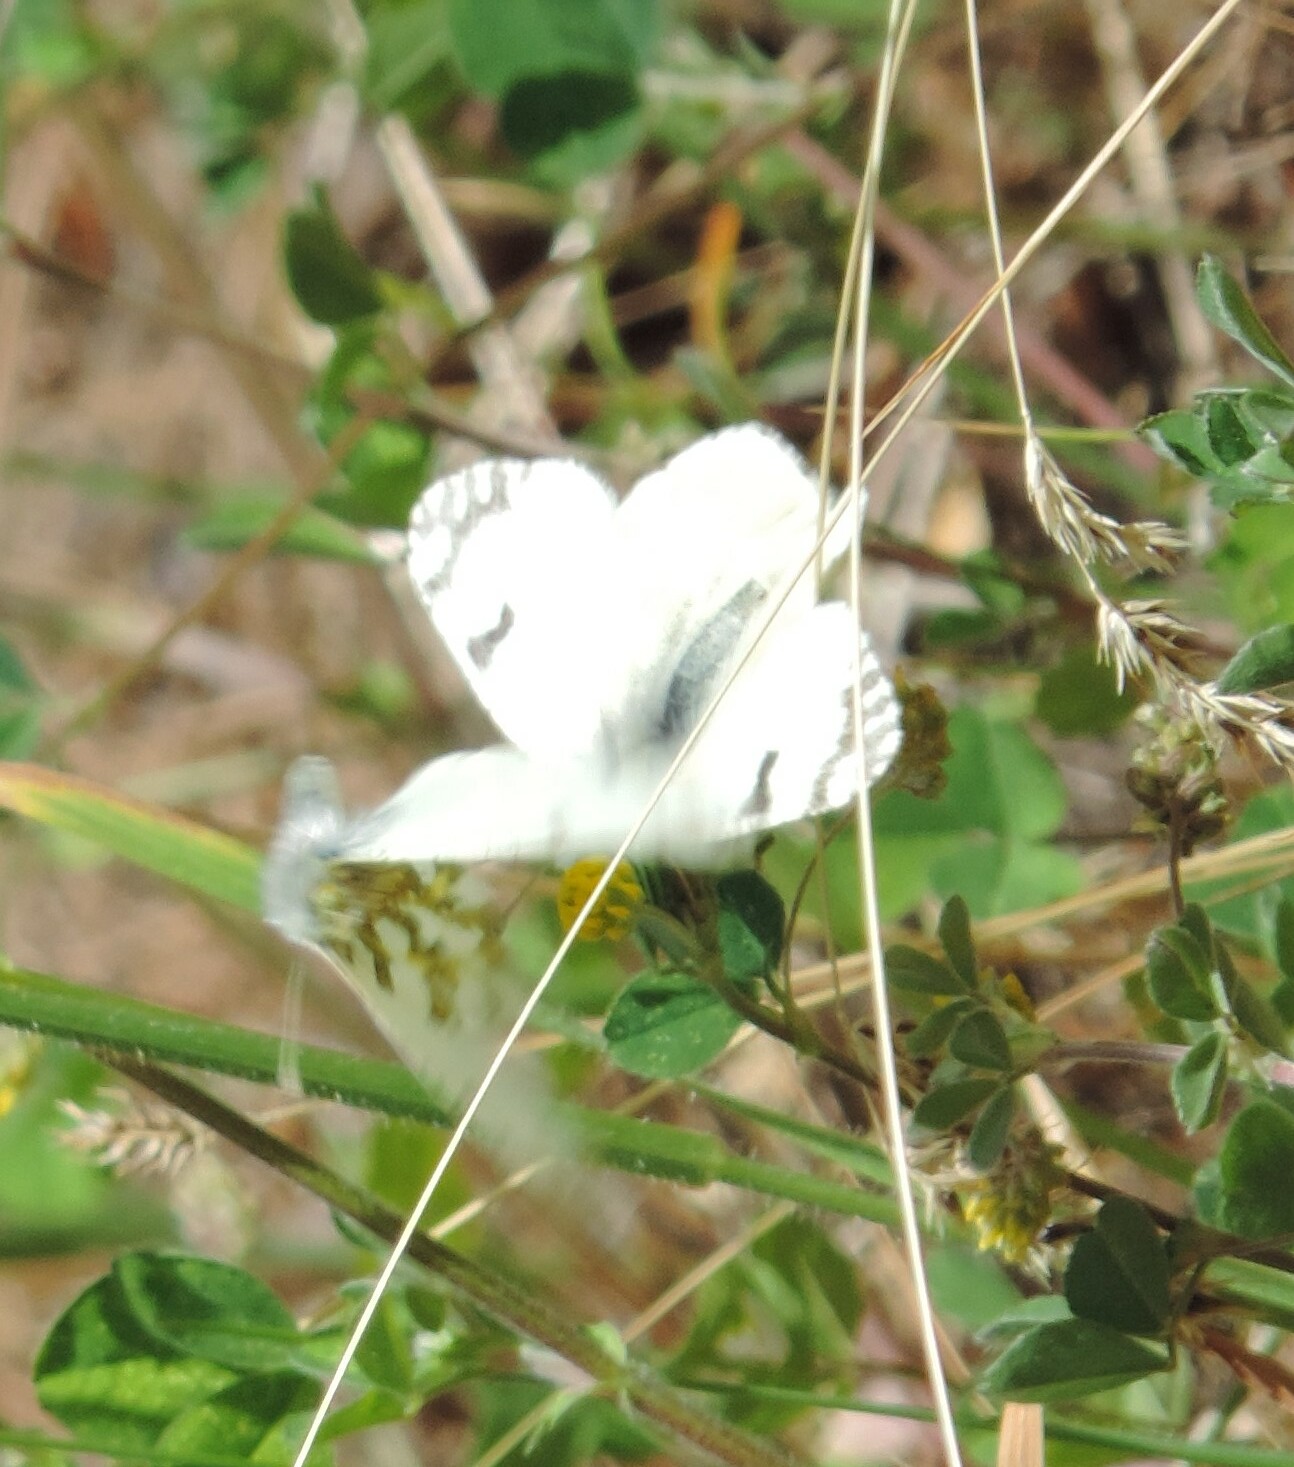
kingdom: Animalia
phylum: Arthropoda
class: Insecta
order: Lepidoptera
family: Pieridae
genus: Euchloe
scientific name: Euchloe ausonides
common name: Creamy marblewing
